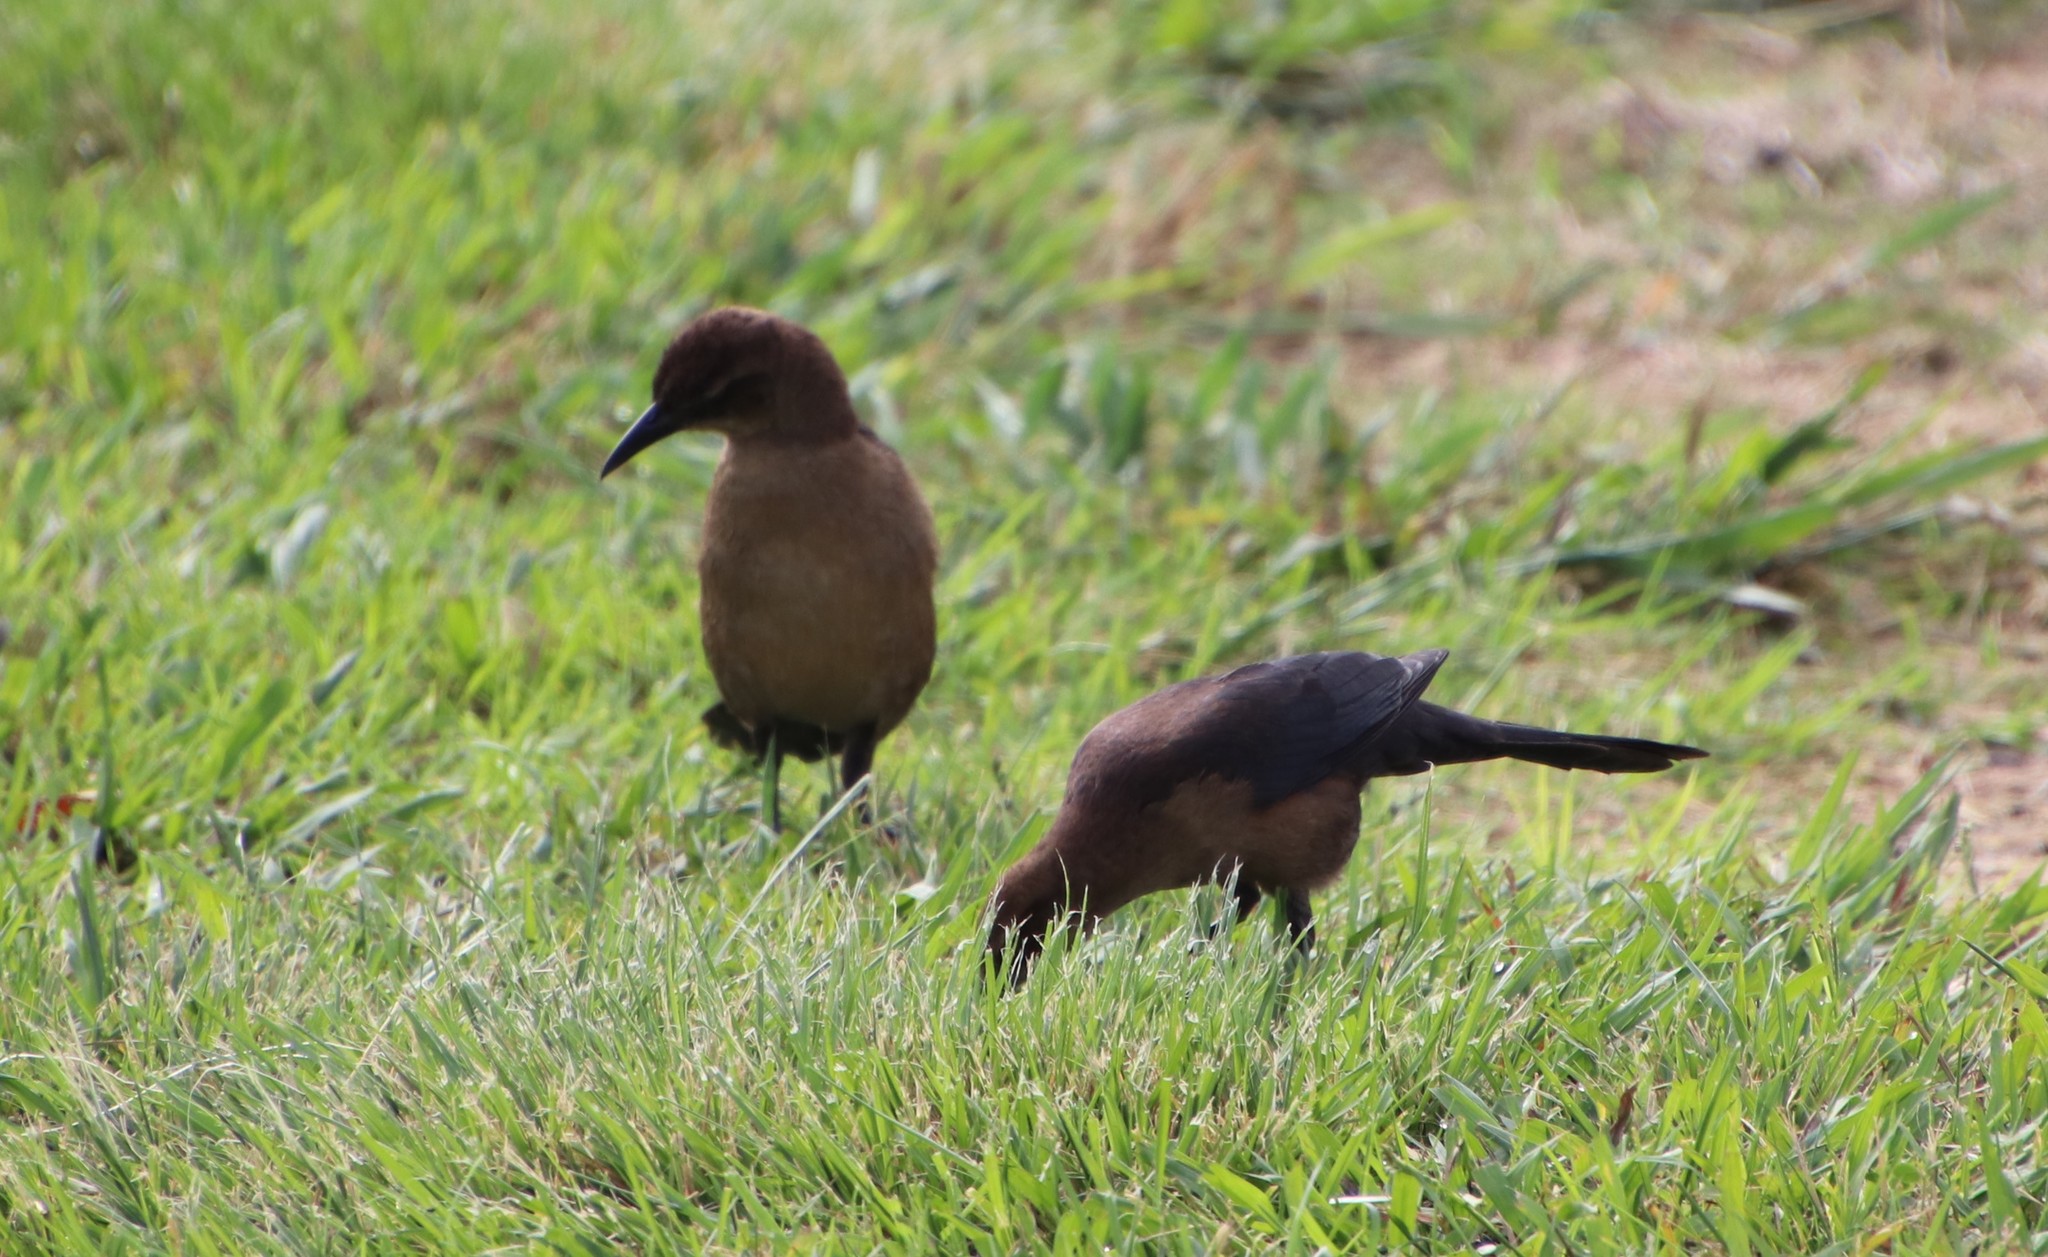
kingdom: Animalia
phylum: Chordata
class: Aves
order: Passeriformes
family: Icteridae
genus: Quiscalus
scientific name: Quiscalus mexicanus
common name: Great-tailed grackle
